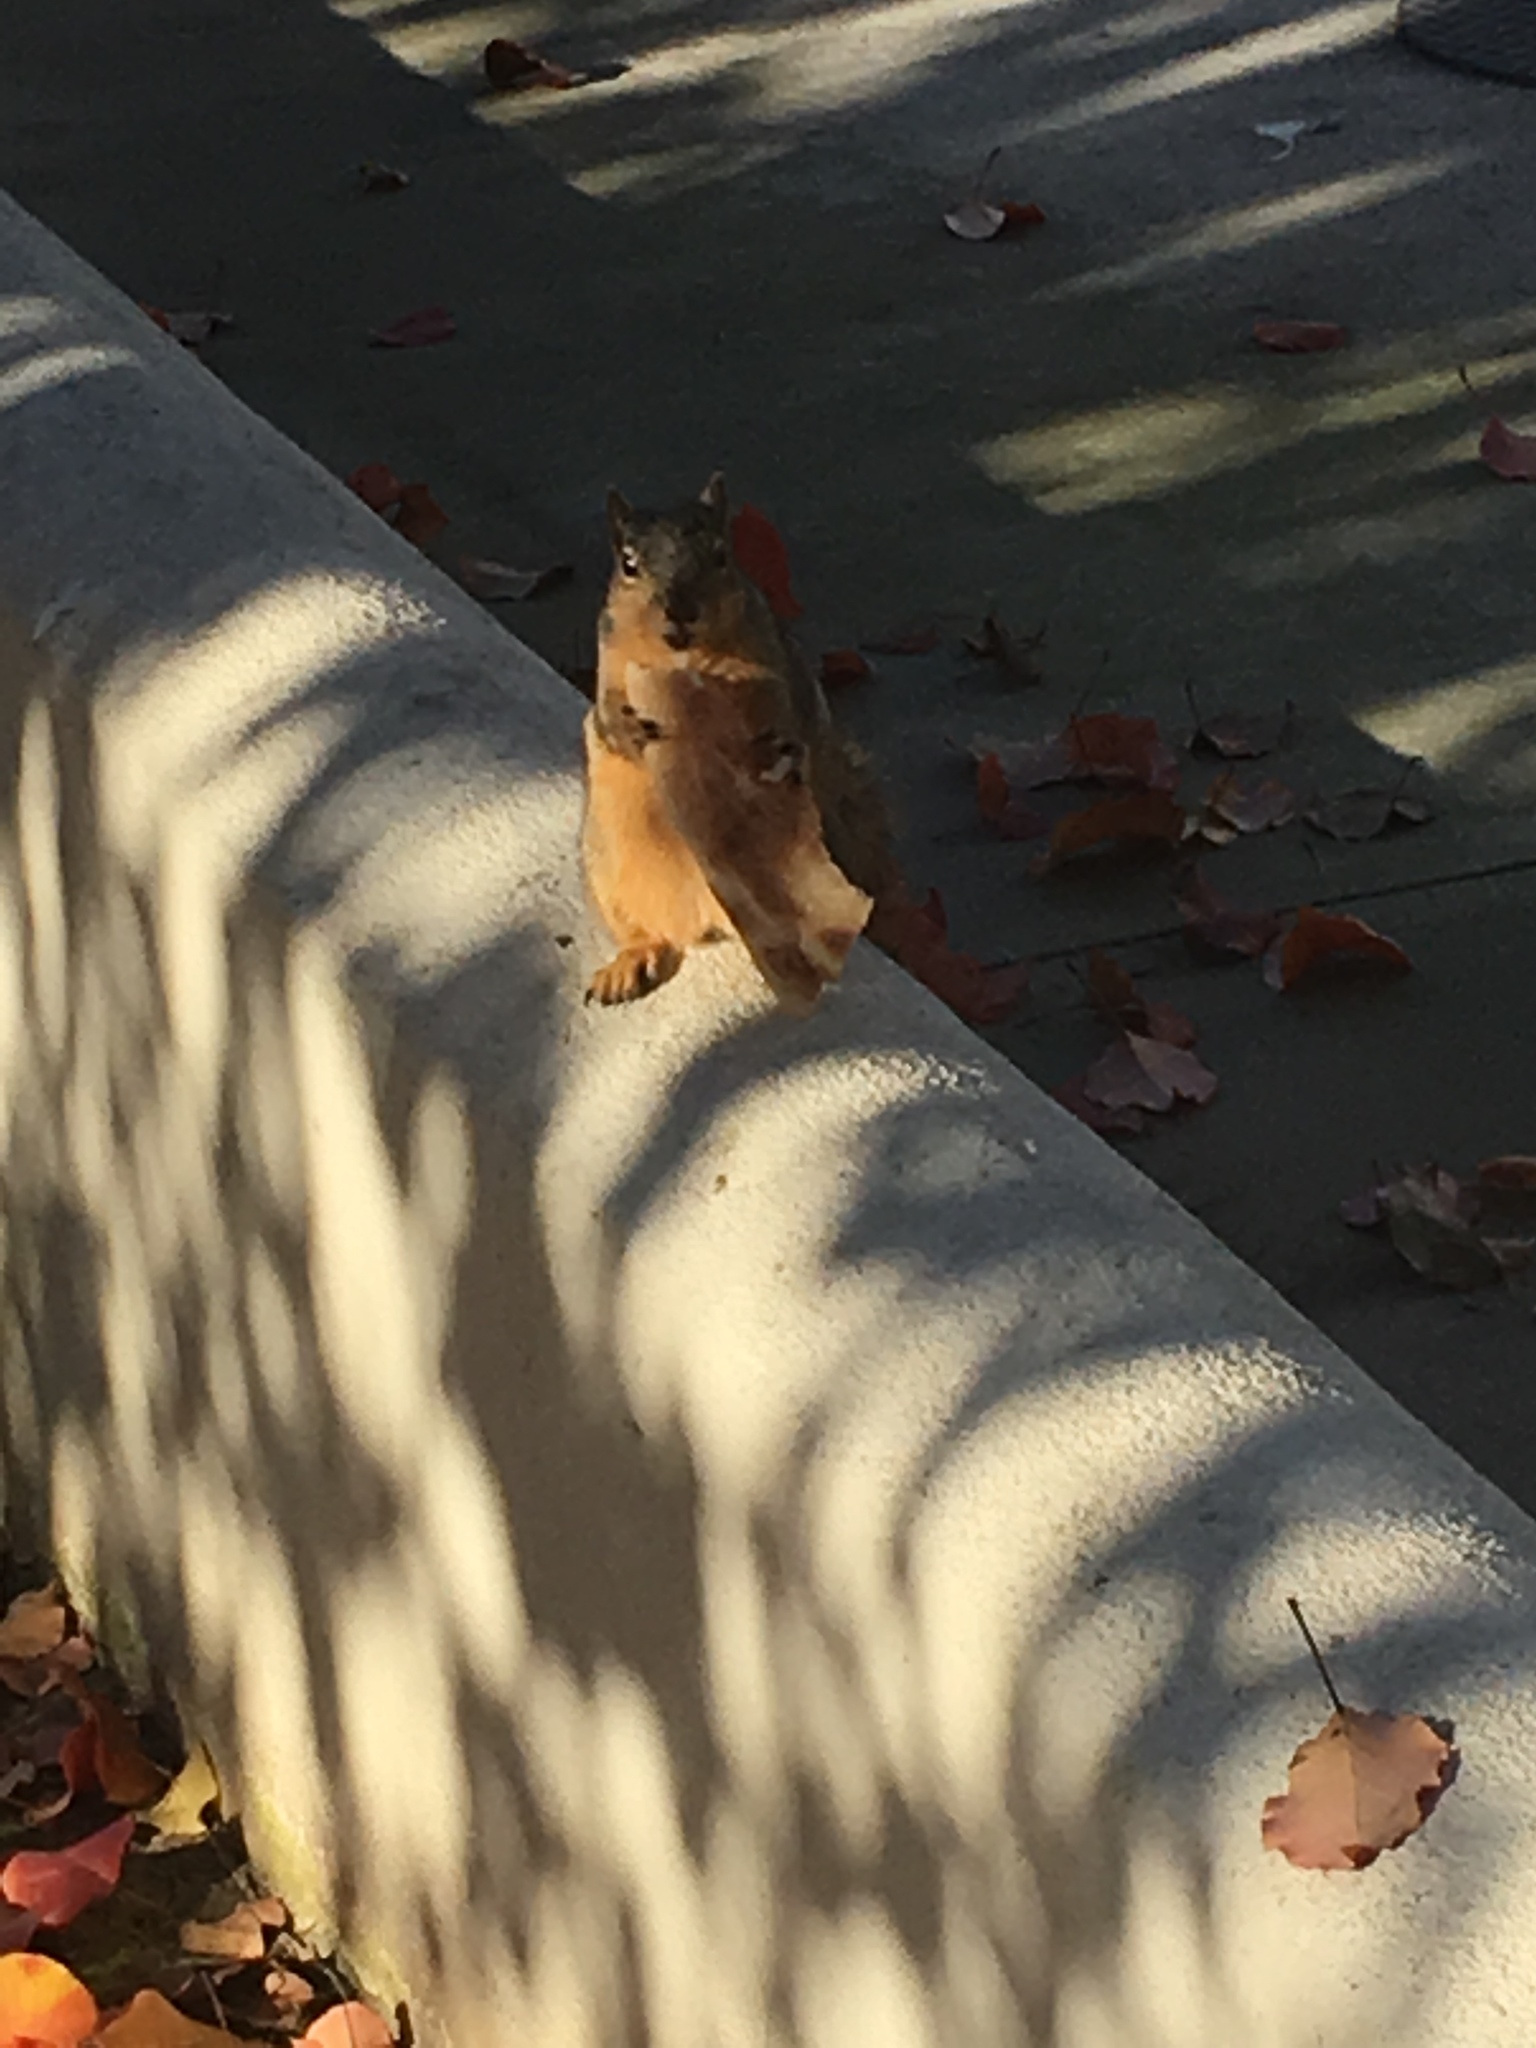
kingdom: Animalia
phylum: Chordata
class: Mammalia
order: Rodentia
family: Sciuridae
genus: Sciurus
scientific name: Sciurus niger
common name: Fox squirrel
